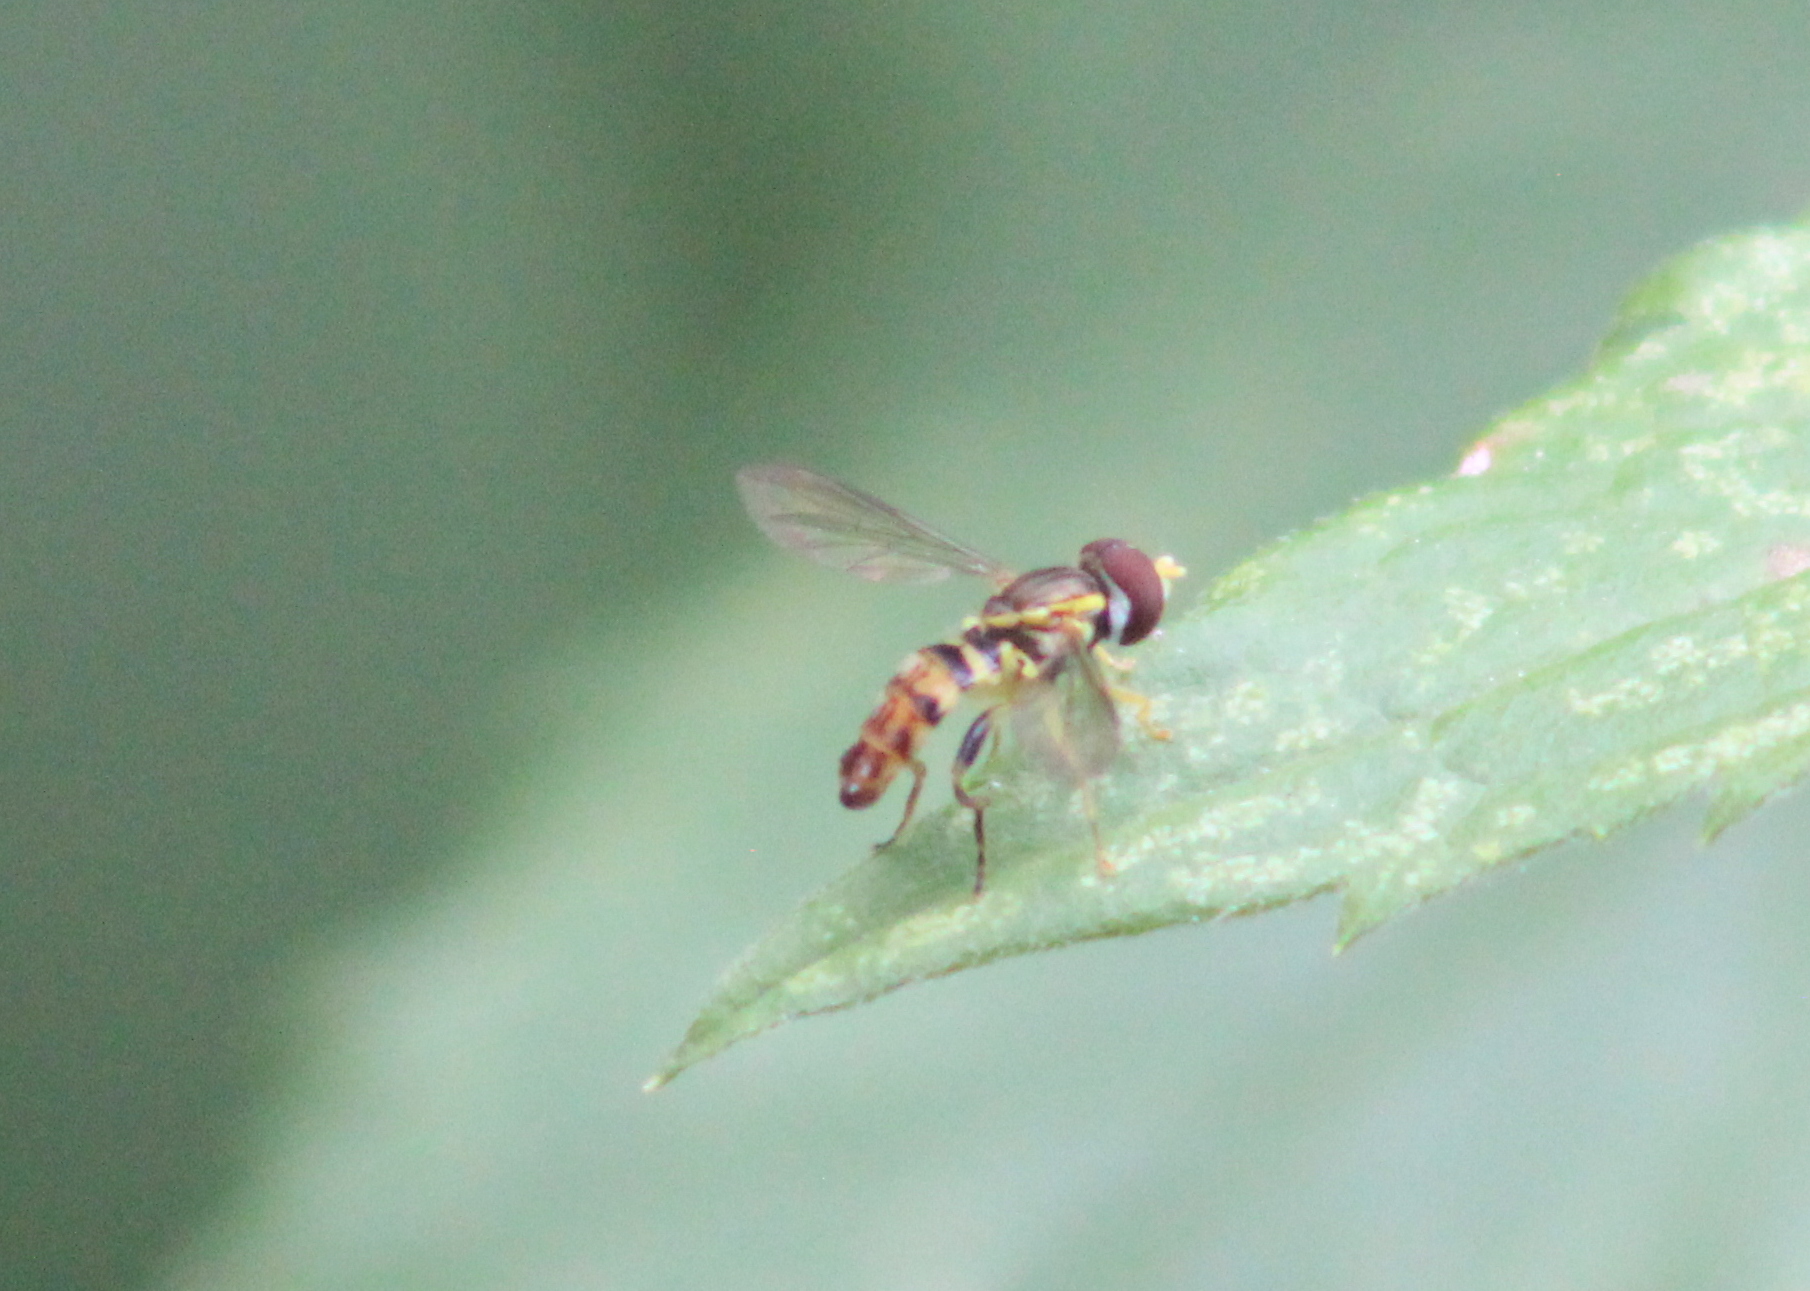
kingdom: Animalia
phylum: Arthropoda
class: Insecta
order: Diptera
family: Syrphidae
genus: Toxomerus
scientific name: Toxomerus geminatus
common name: Eastern calligrapher
